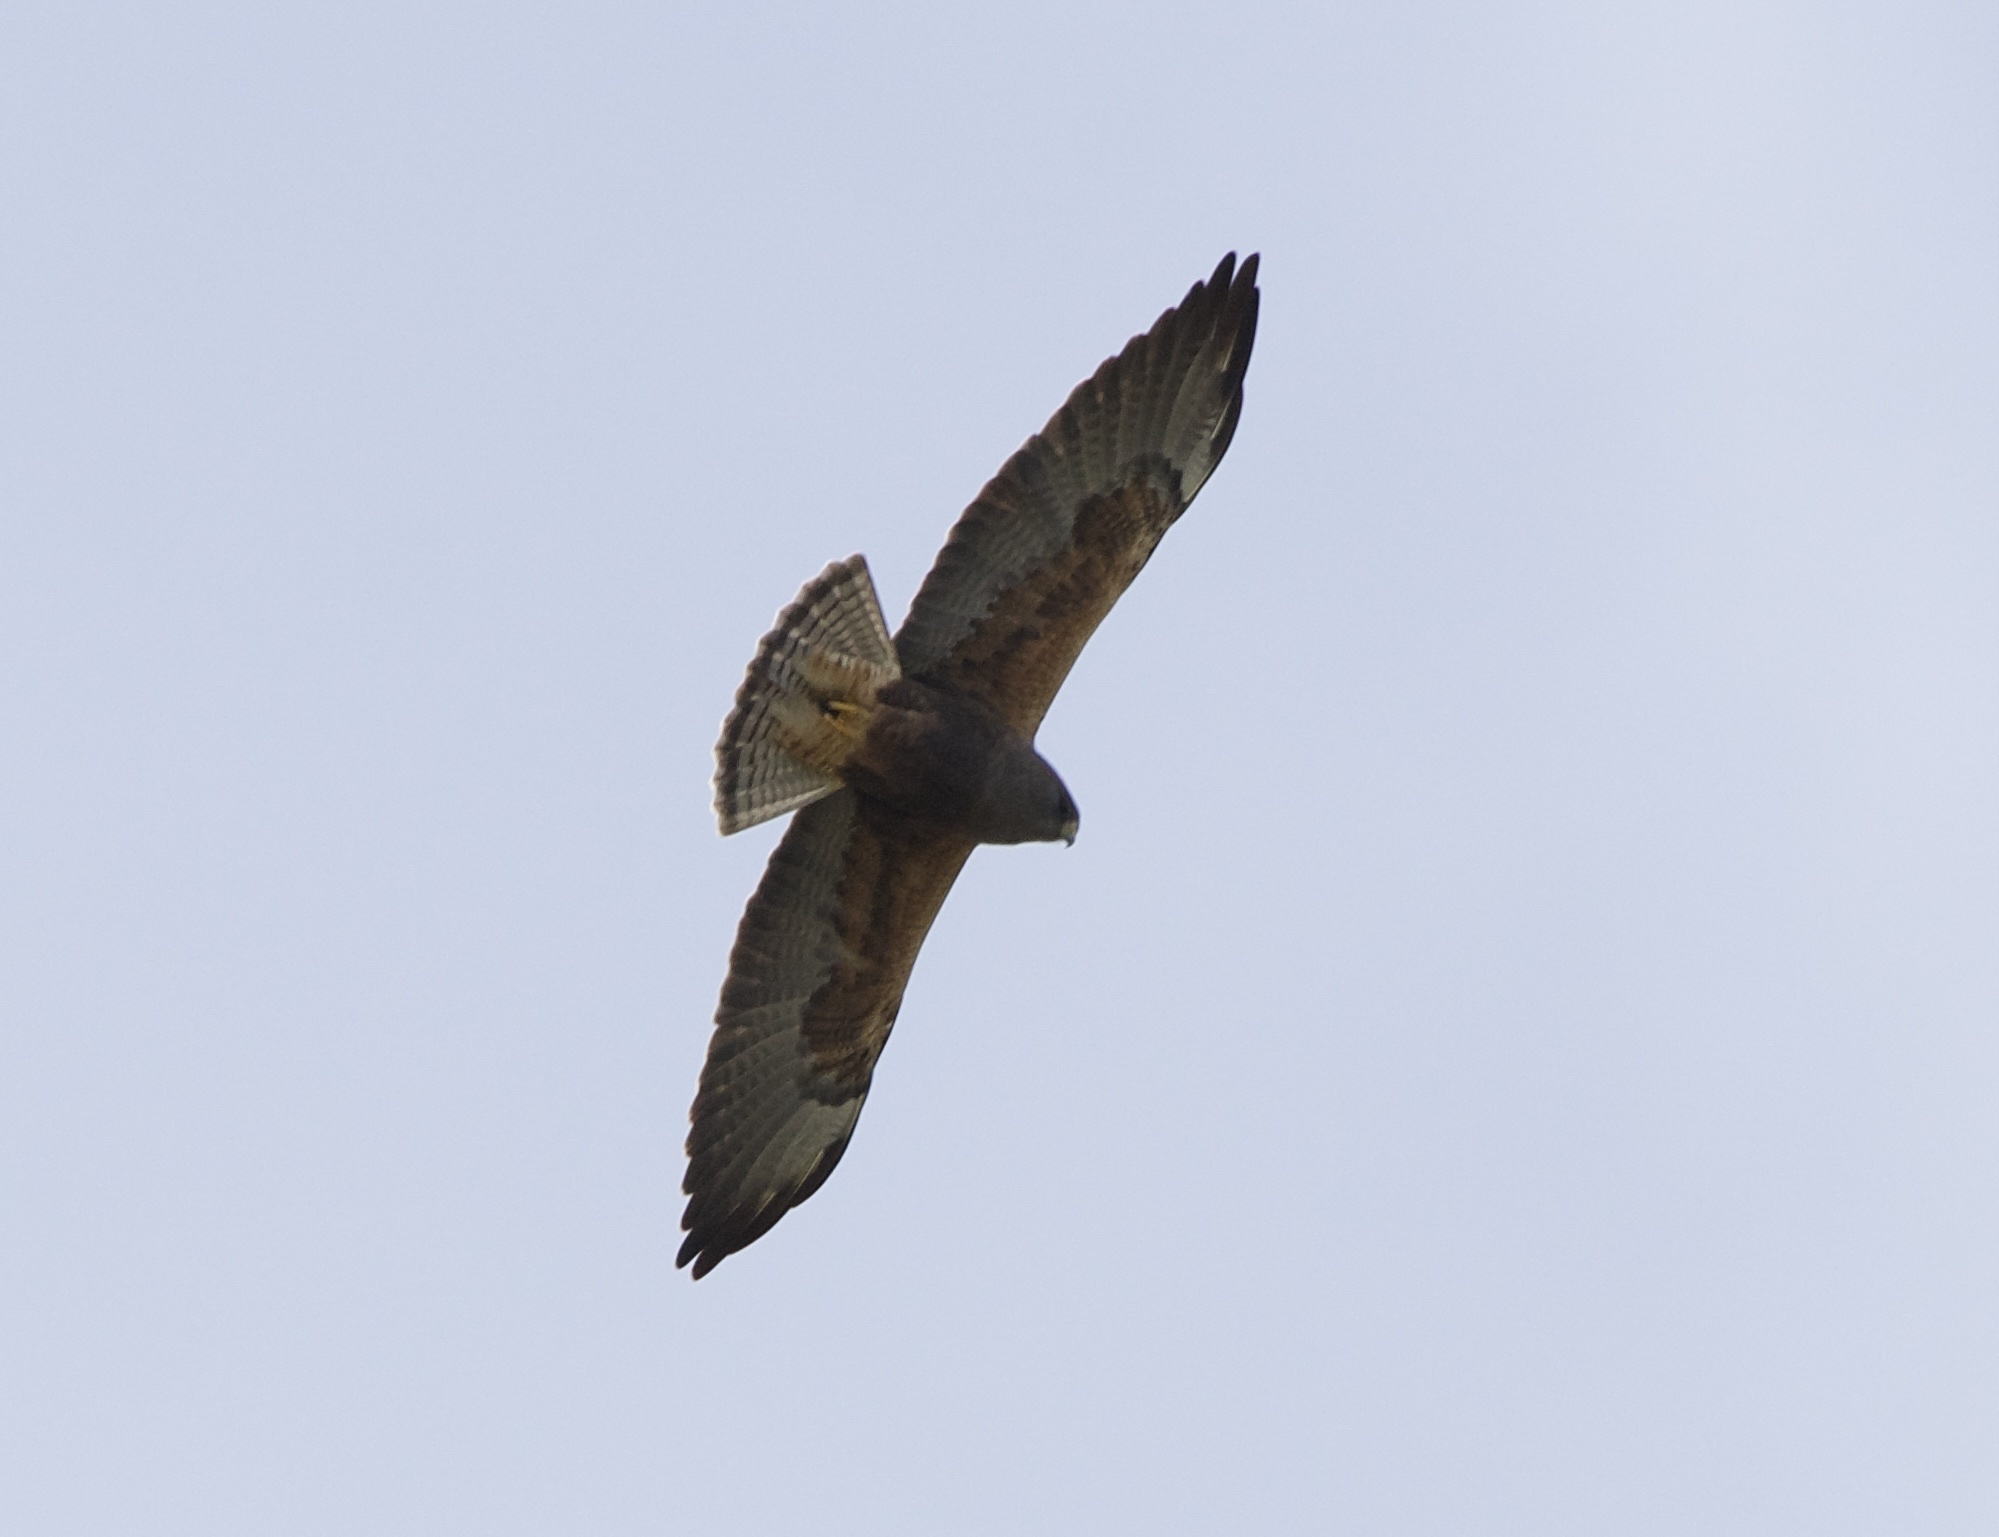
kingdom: Animalia
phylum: Chordata
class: Aves
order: Accipitriformes
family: Accipitridae
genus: Buteo
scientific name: Buteo swainsoni
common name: Swainson's hawk
